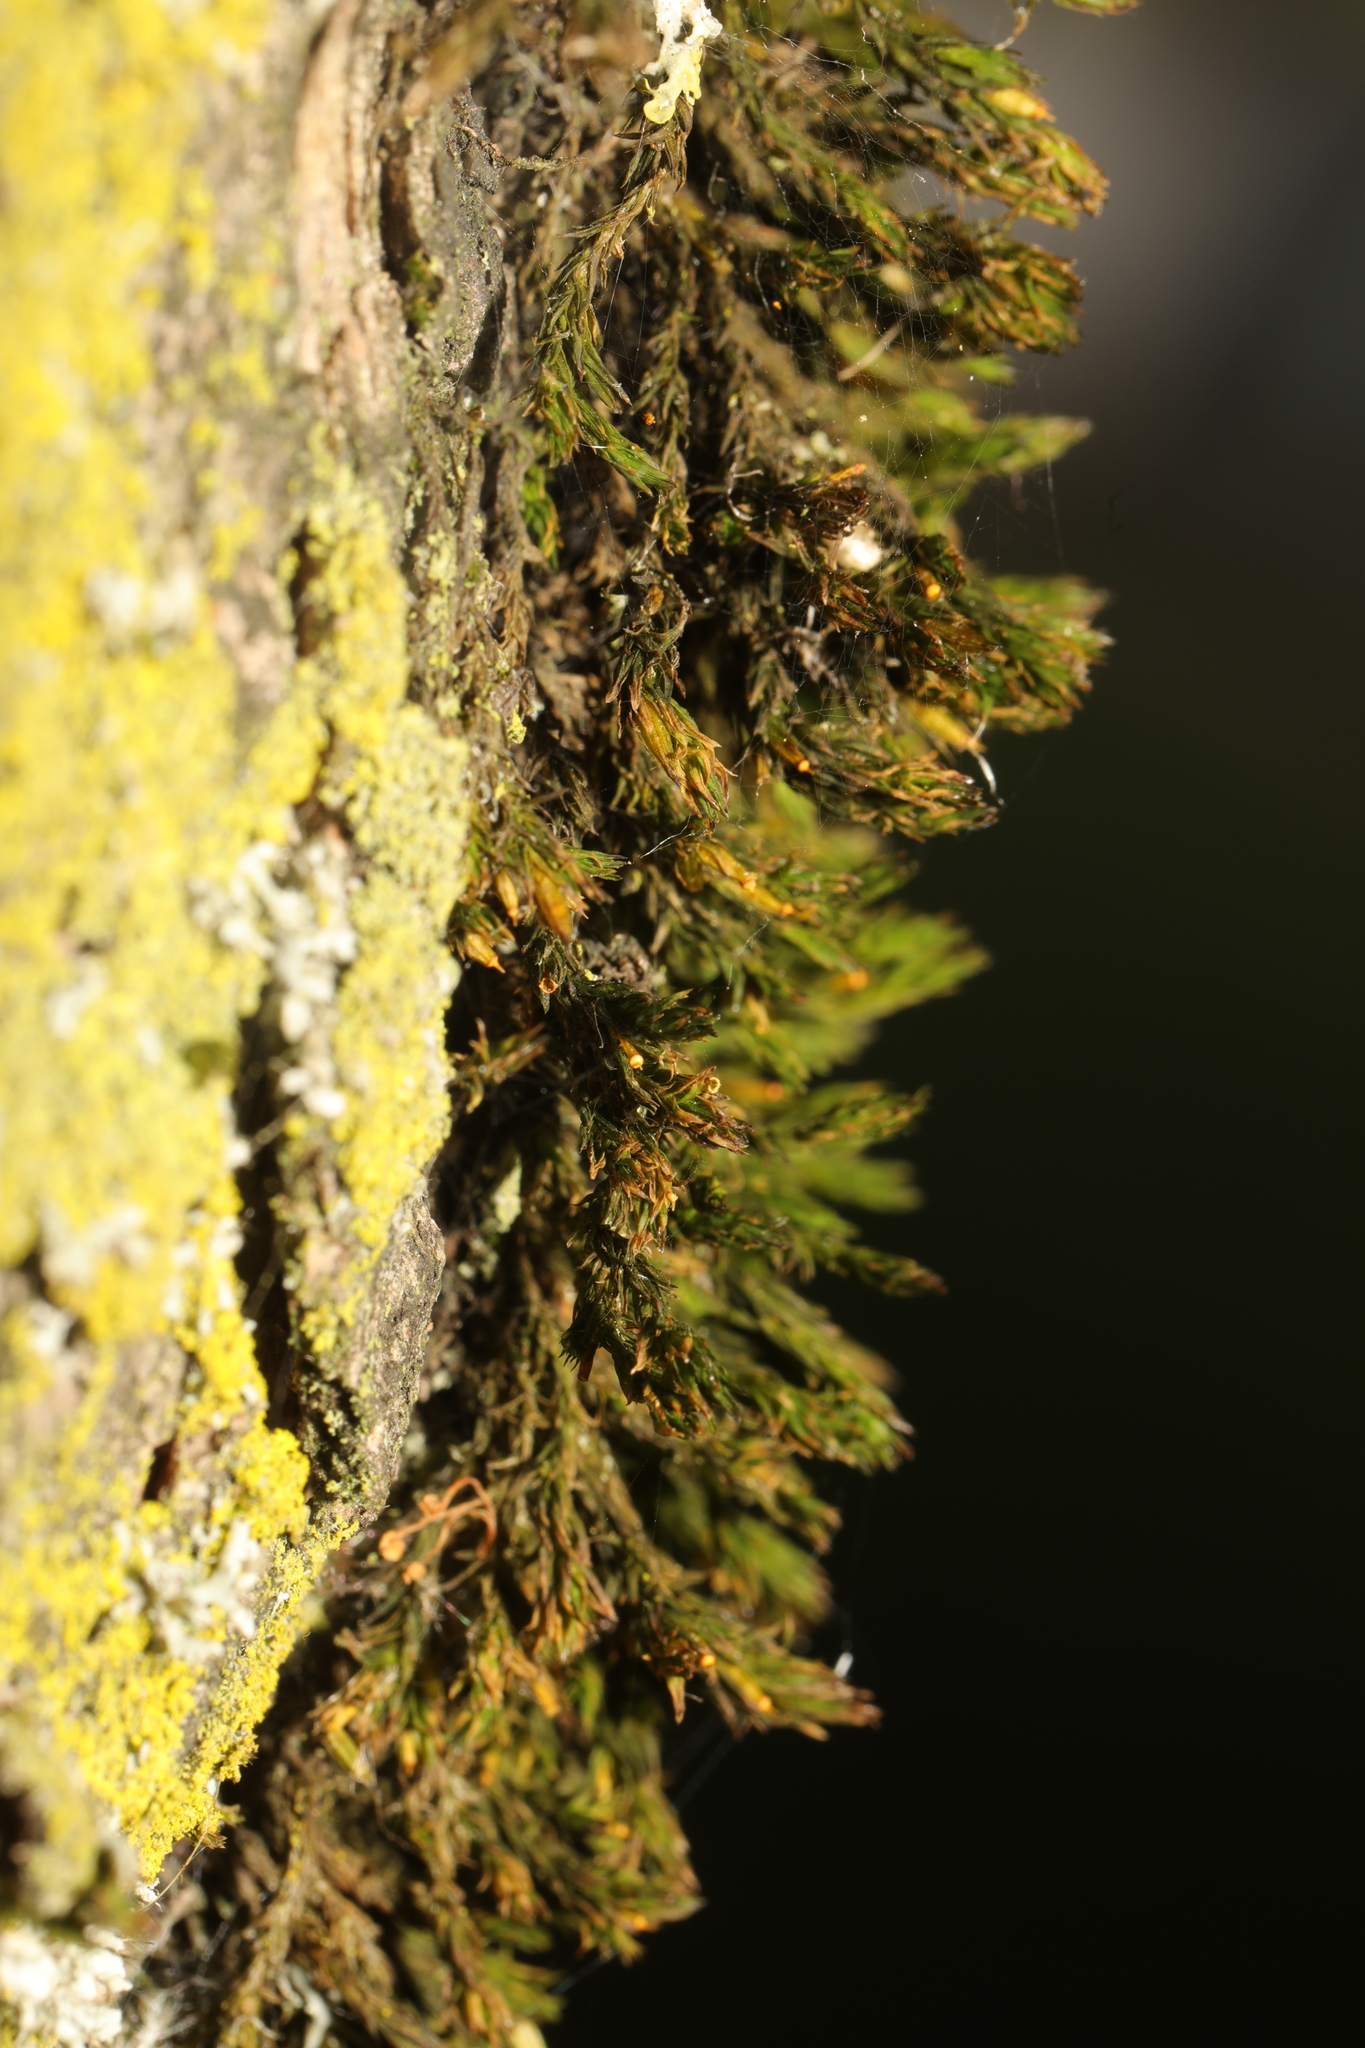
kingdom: Plantae
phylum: Bryophyta
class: Bryopsida
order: Orthotrichales
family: Orthotrichaceae
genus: Lewinskya
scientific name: Lewinskya affinis
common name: Wood bristle-moss
